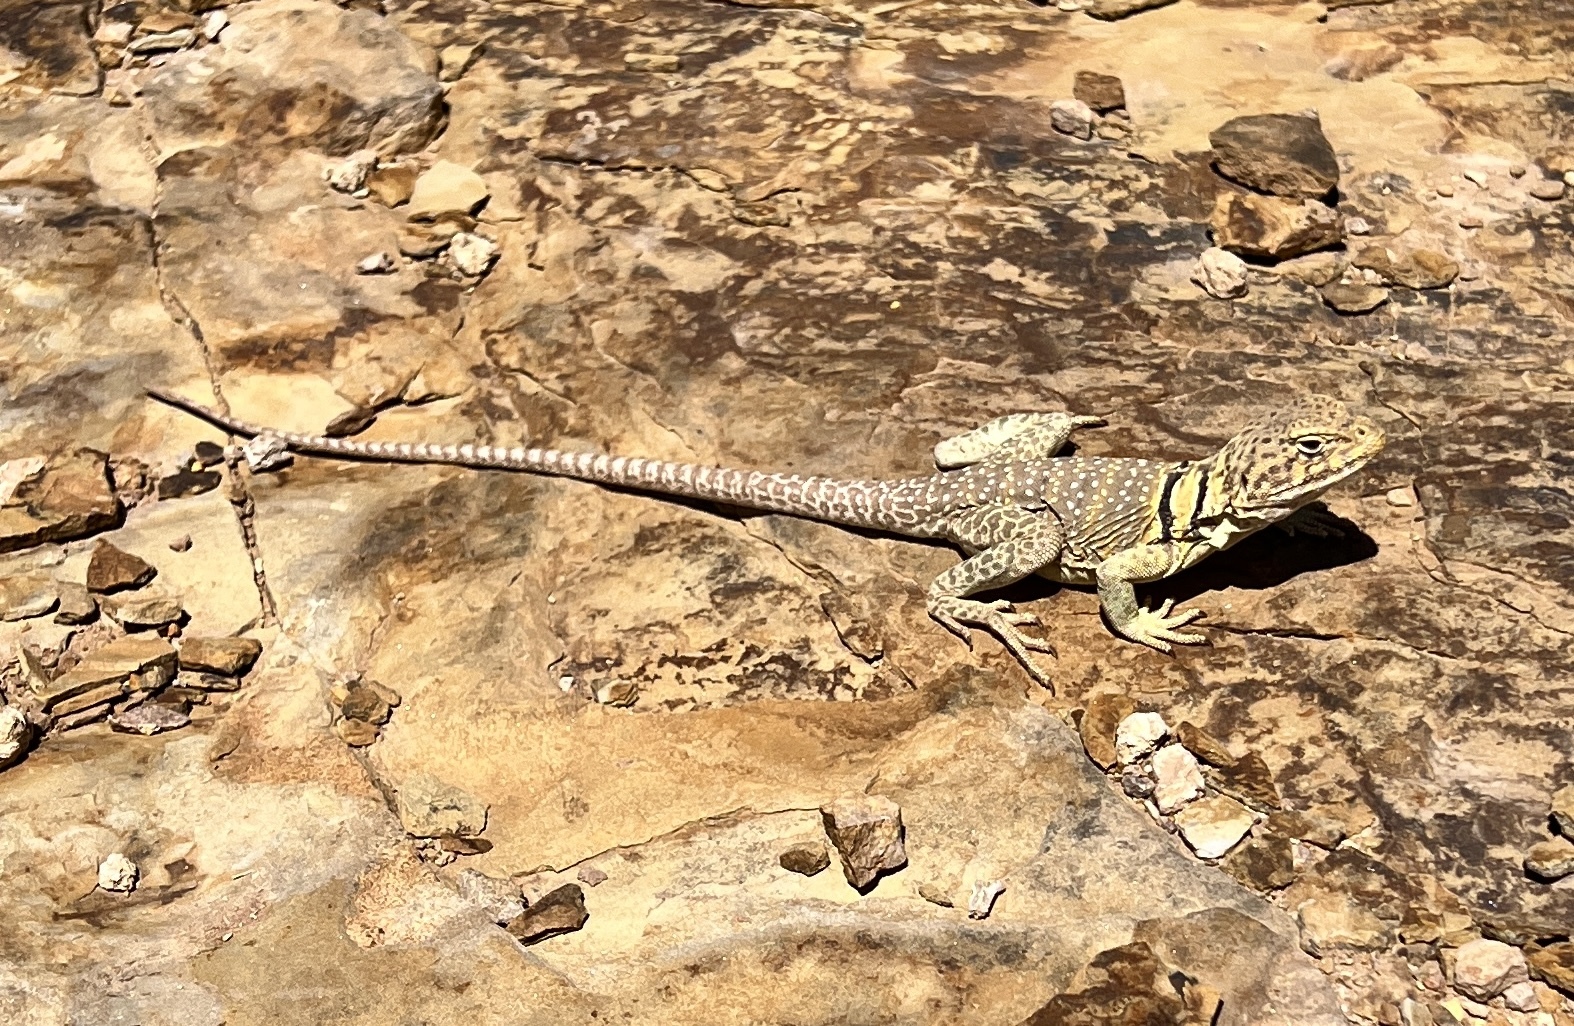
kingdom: Animalia
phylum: Chordata
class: Squamata
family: Crotaphytidae
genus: Crotaphytus
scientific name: Crotaphytus collaris
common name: Collared lizard
